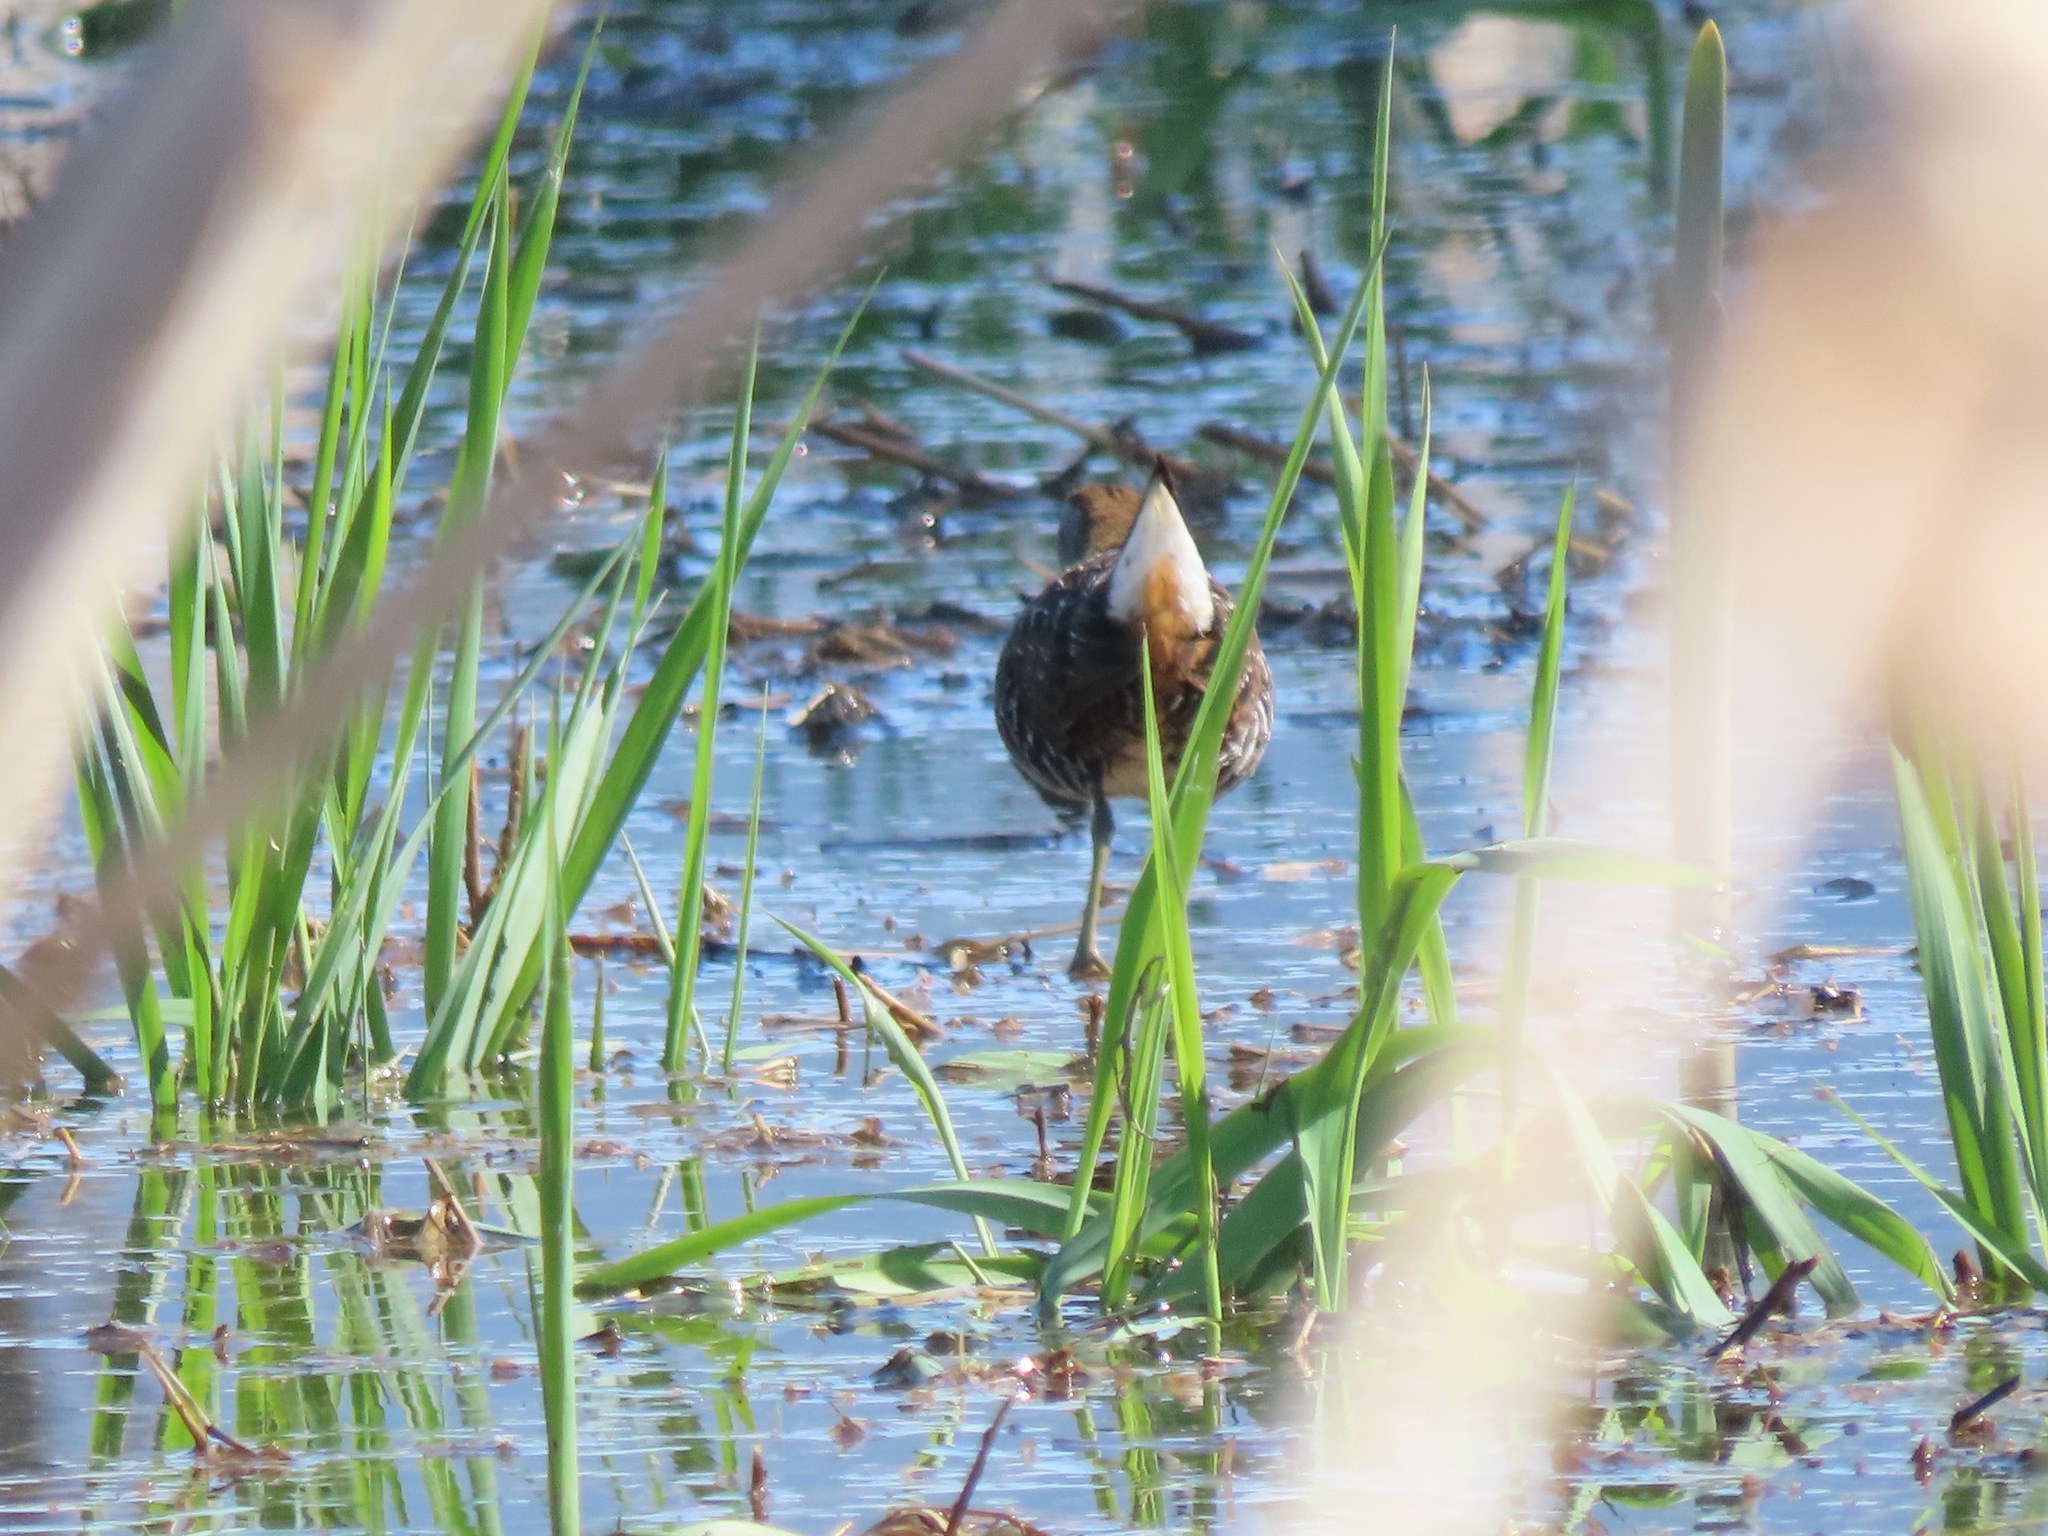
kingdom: Animalia
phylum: Chordata
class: Aves
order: Gruiformes
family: Rallidae
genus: Porzana
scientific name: Porzana carolina
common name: Sora
